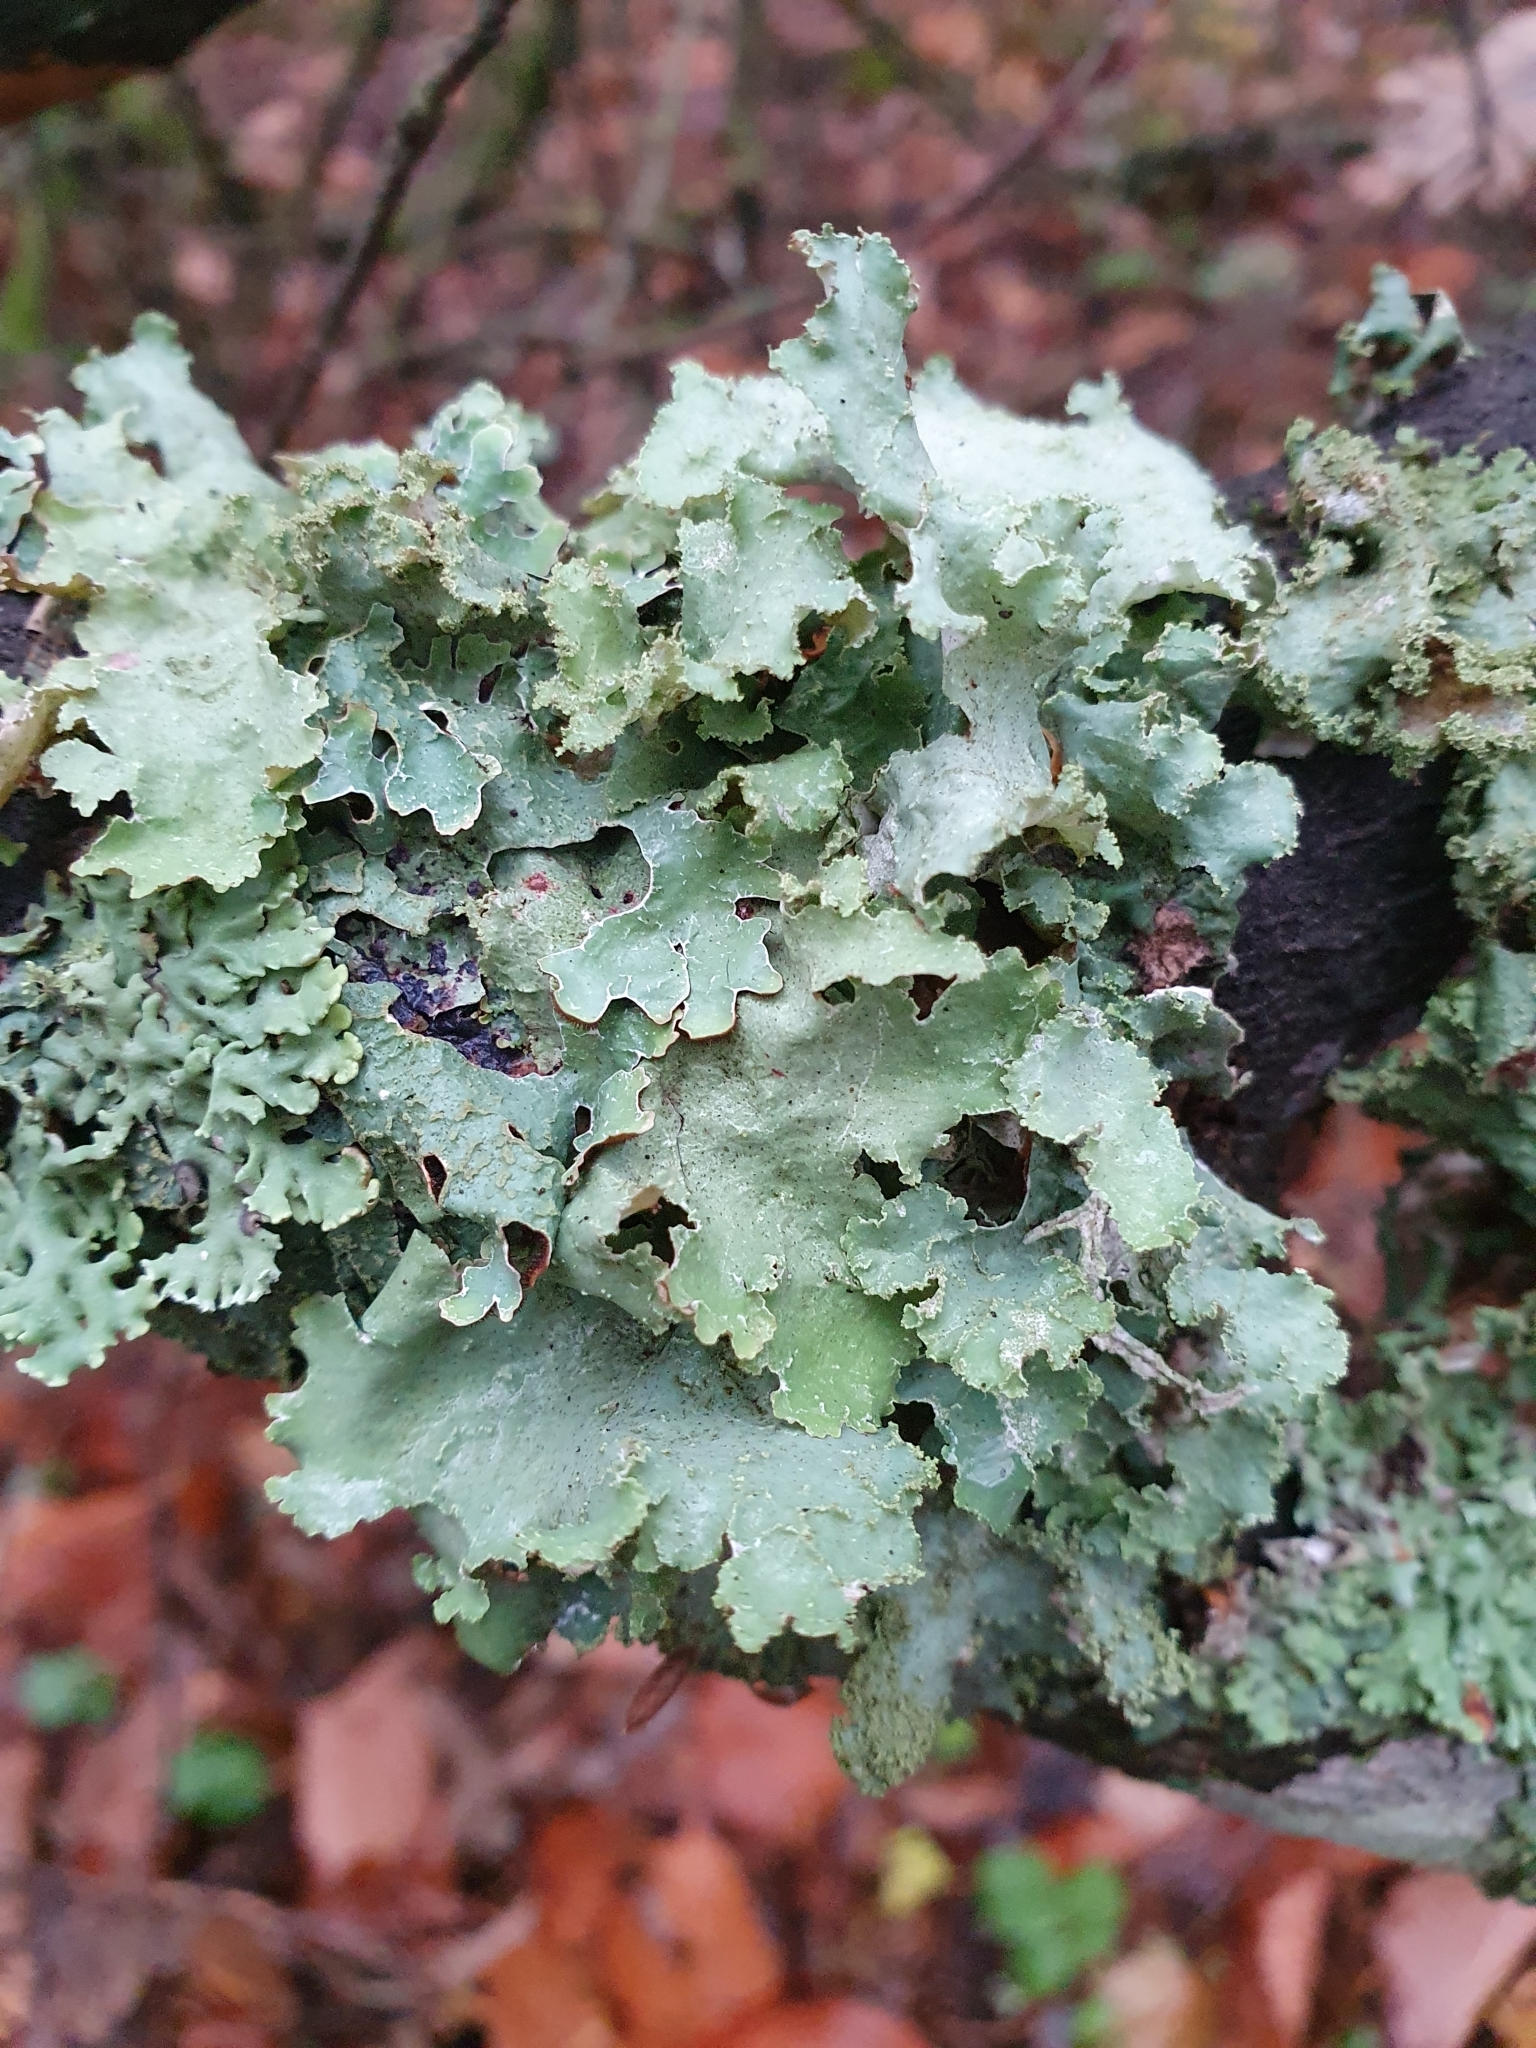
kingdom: Fungi
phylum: Ascomycota
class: Lecanoromycetes
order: Lecanorales
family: Parmeliaceae
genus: Platismatia
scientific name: Platismatia glauca
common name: Varied rag lichen
